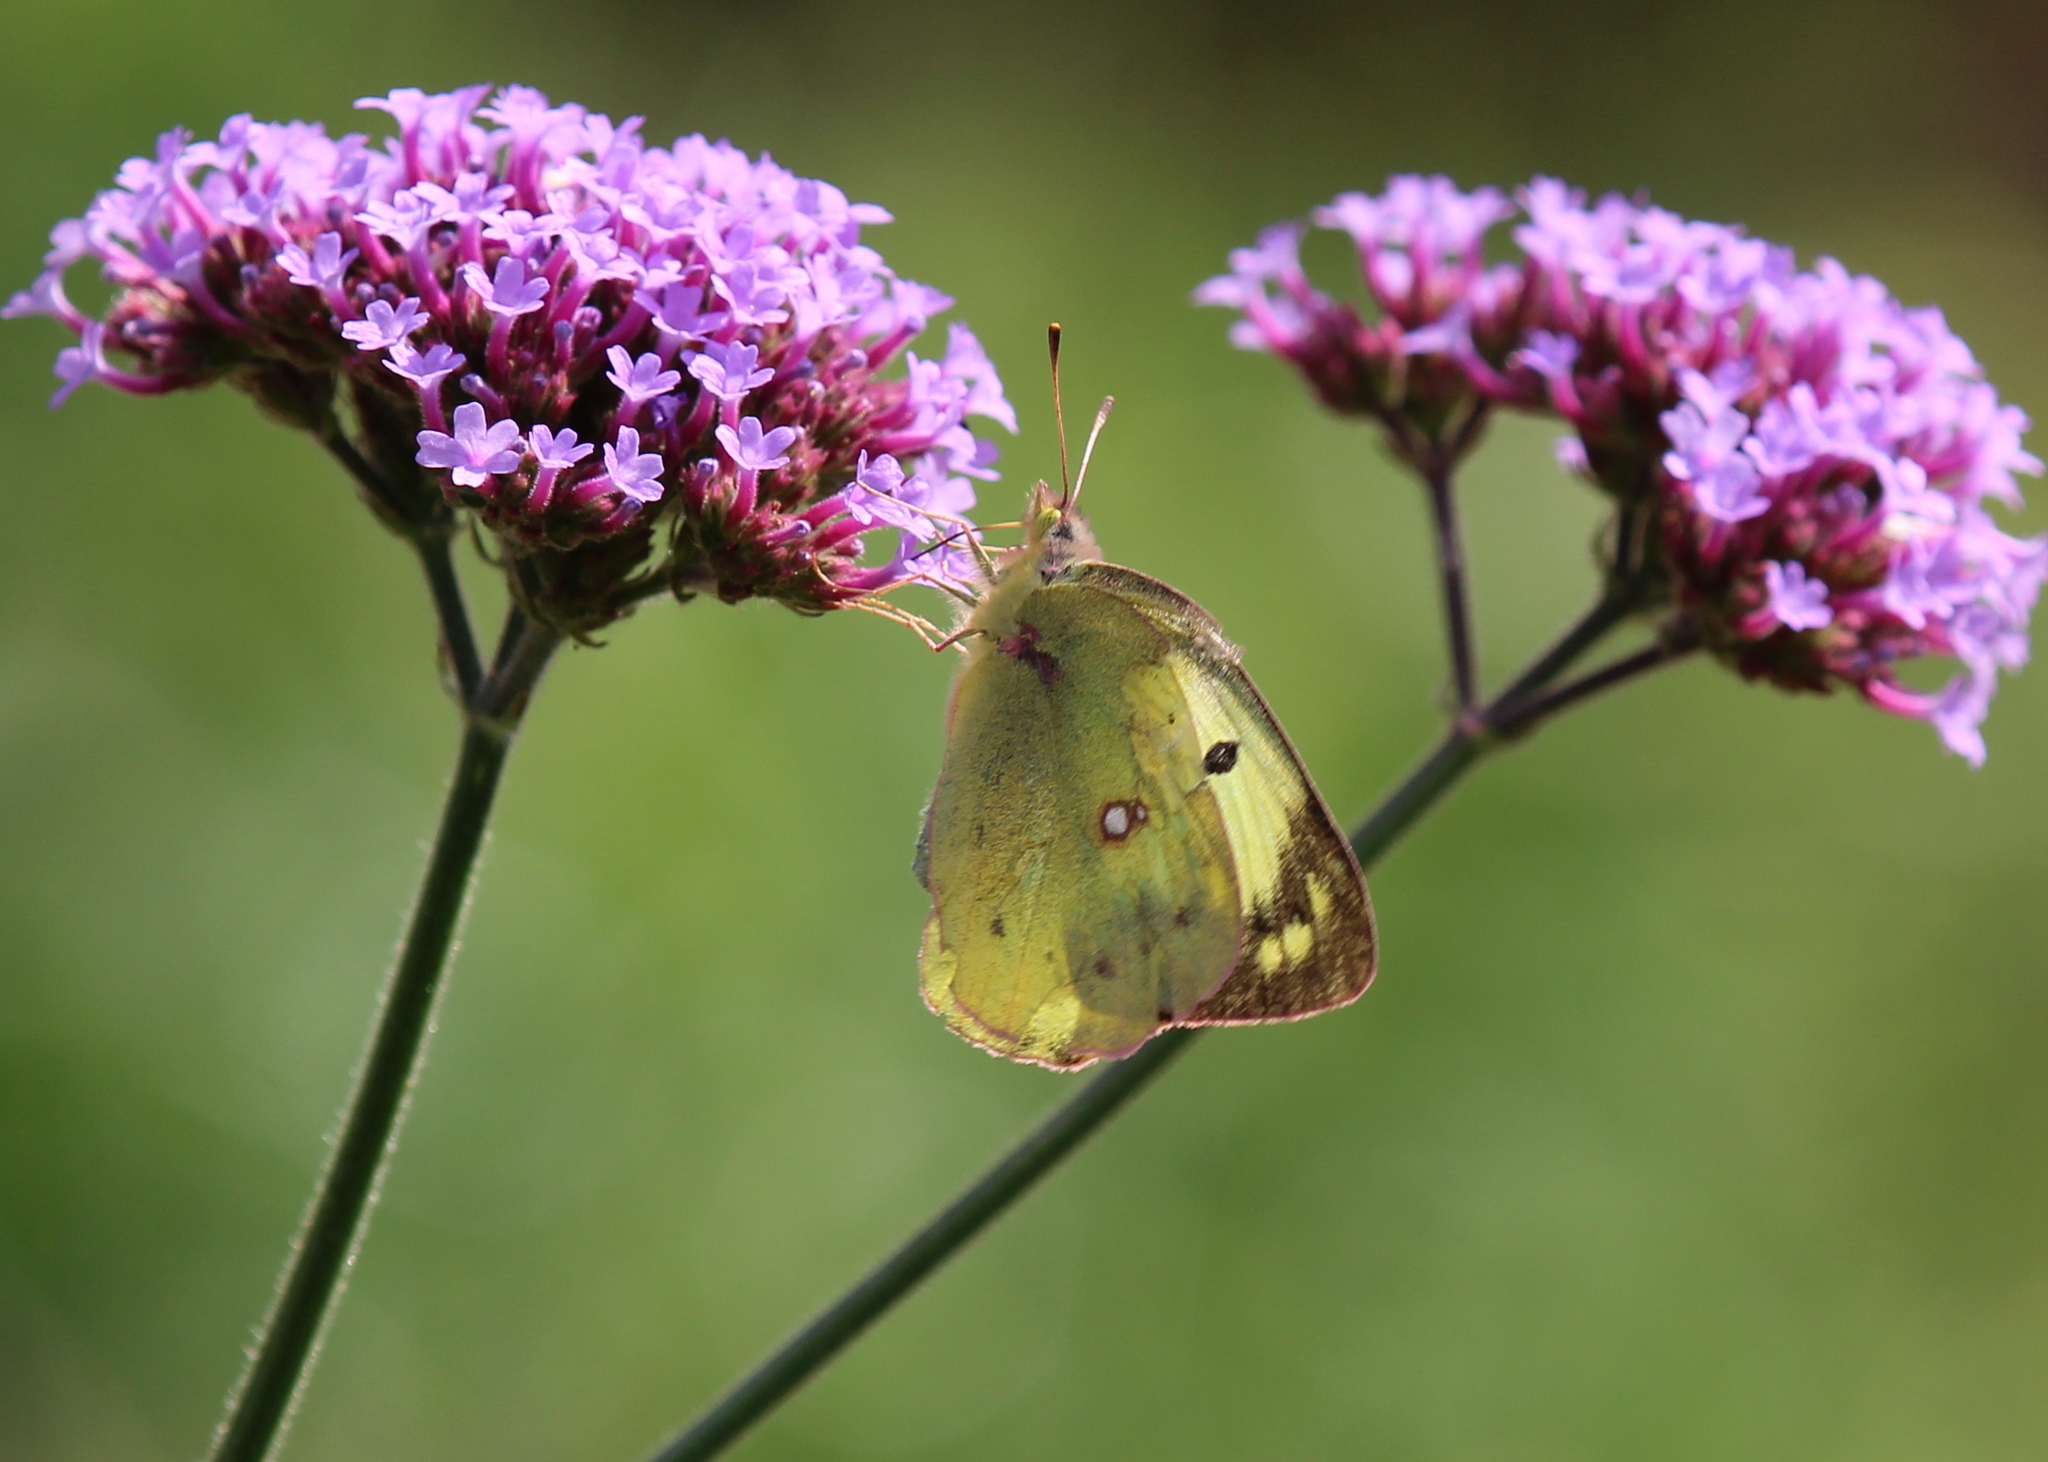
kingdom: Animalia
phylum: Arthropoda
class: Insecta
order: Lepidoptera
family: Pieridae
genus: Colias
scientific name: Colias philodice
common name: Clouded sulphur
